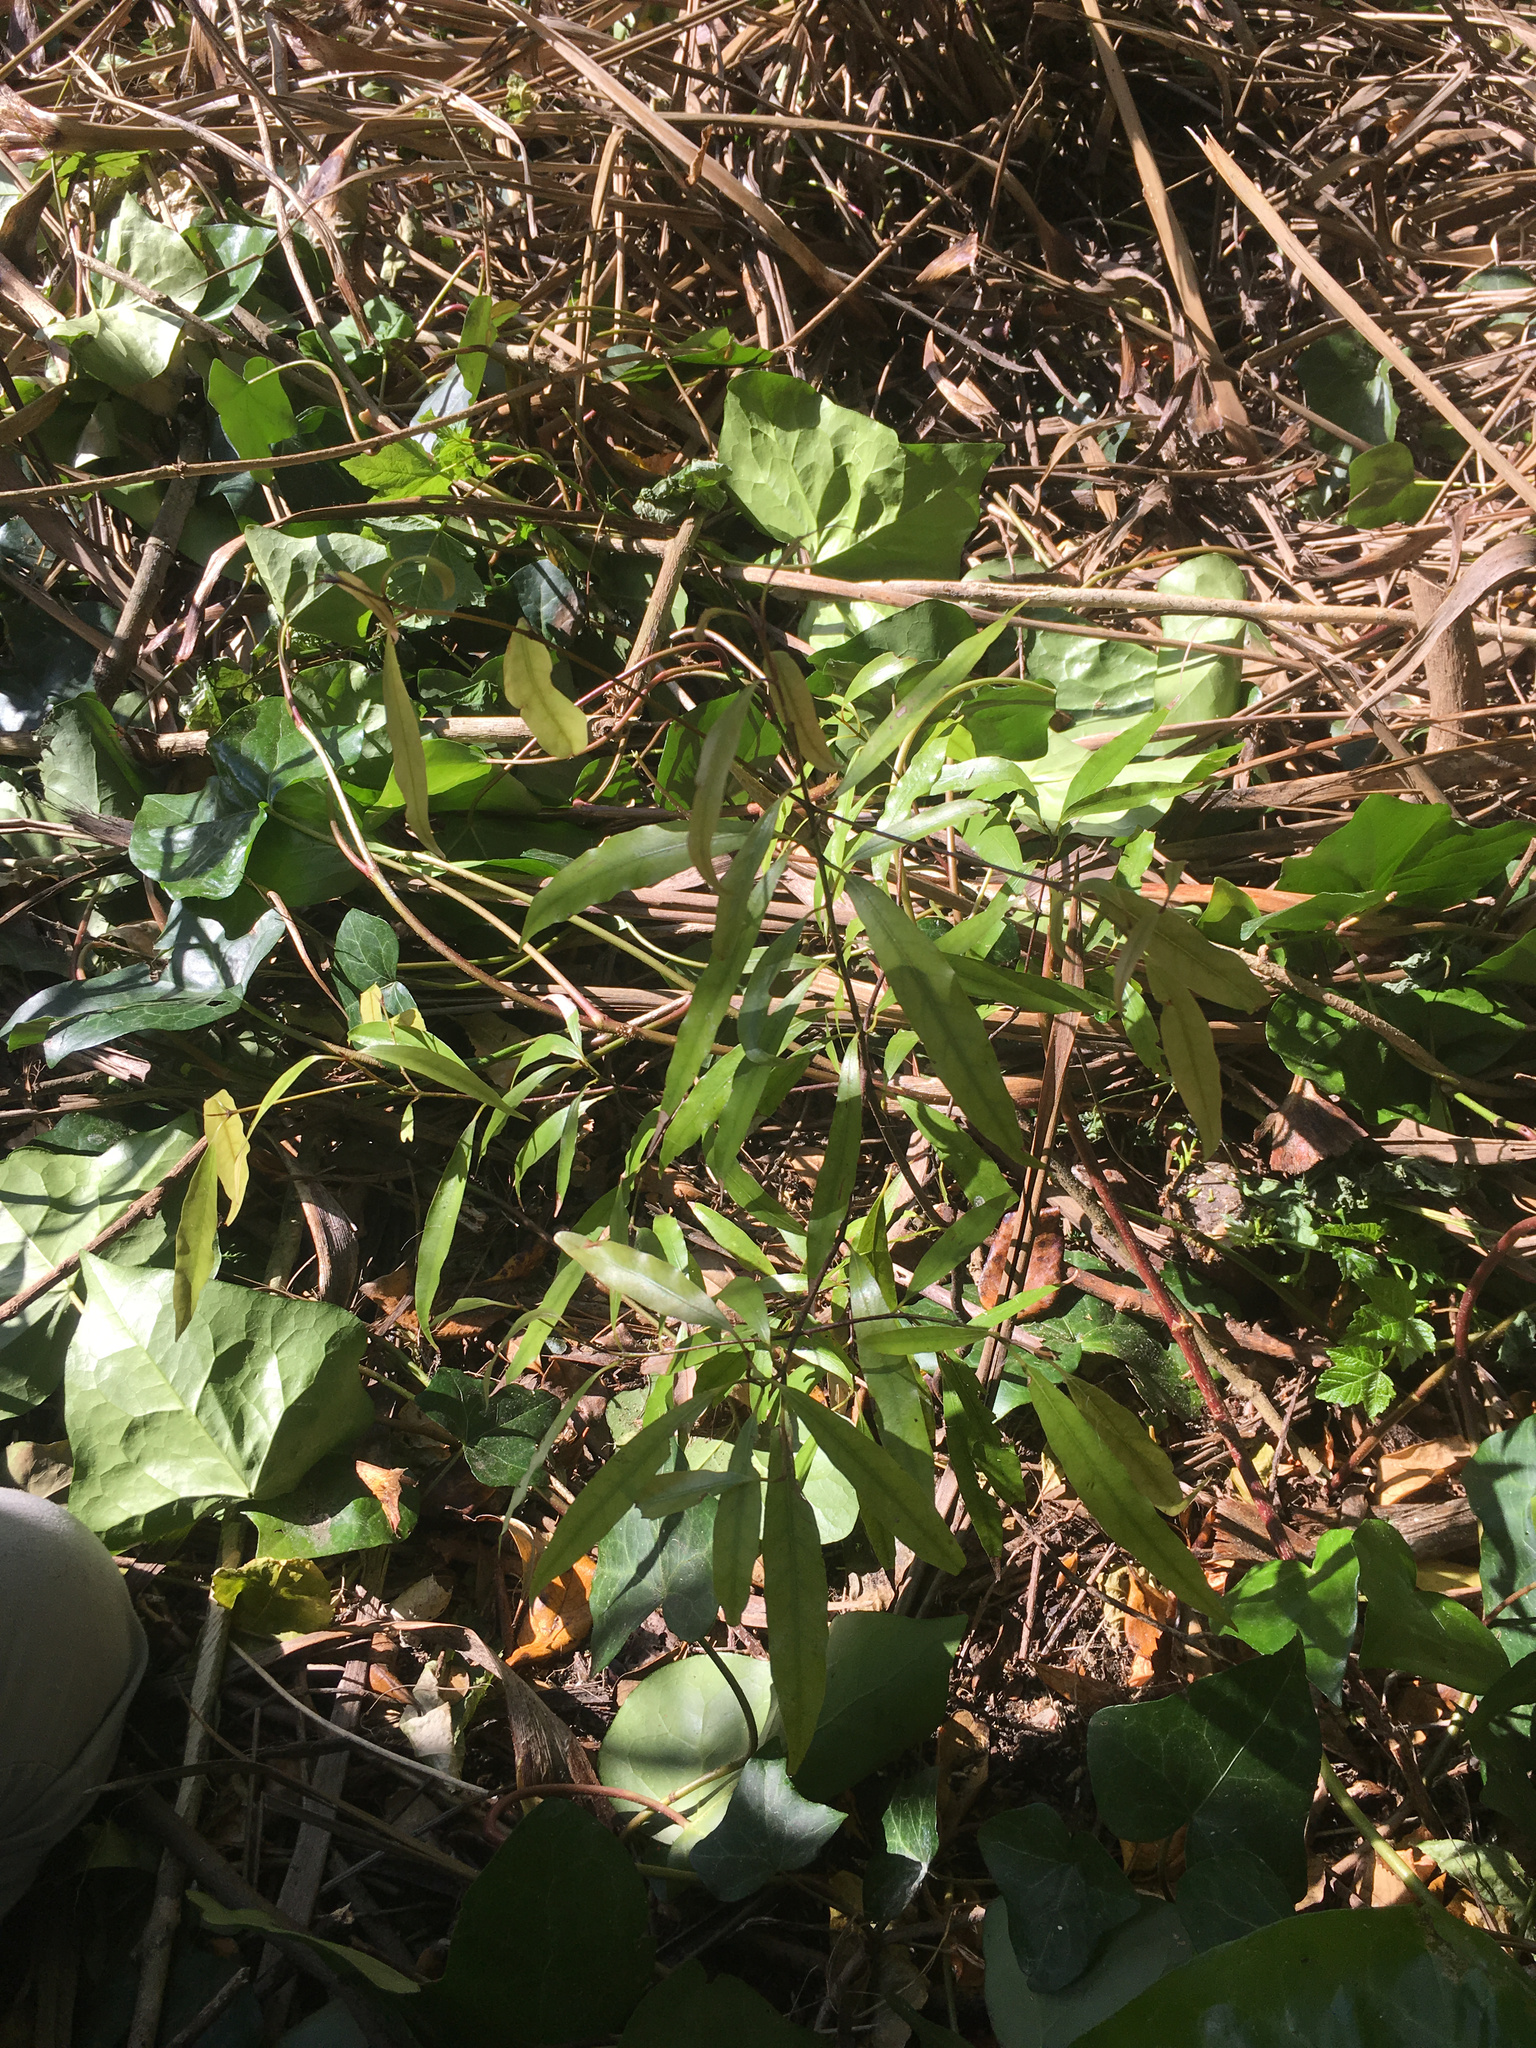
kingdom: Plantae
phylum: Tracheophyta
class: Magnoliopsida
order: Laurales
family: Lauraceae
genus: Beilschmiedia
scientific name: Beilschmiedia tawa
